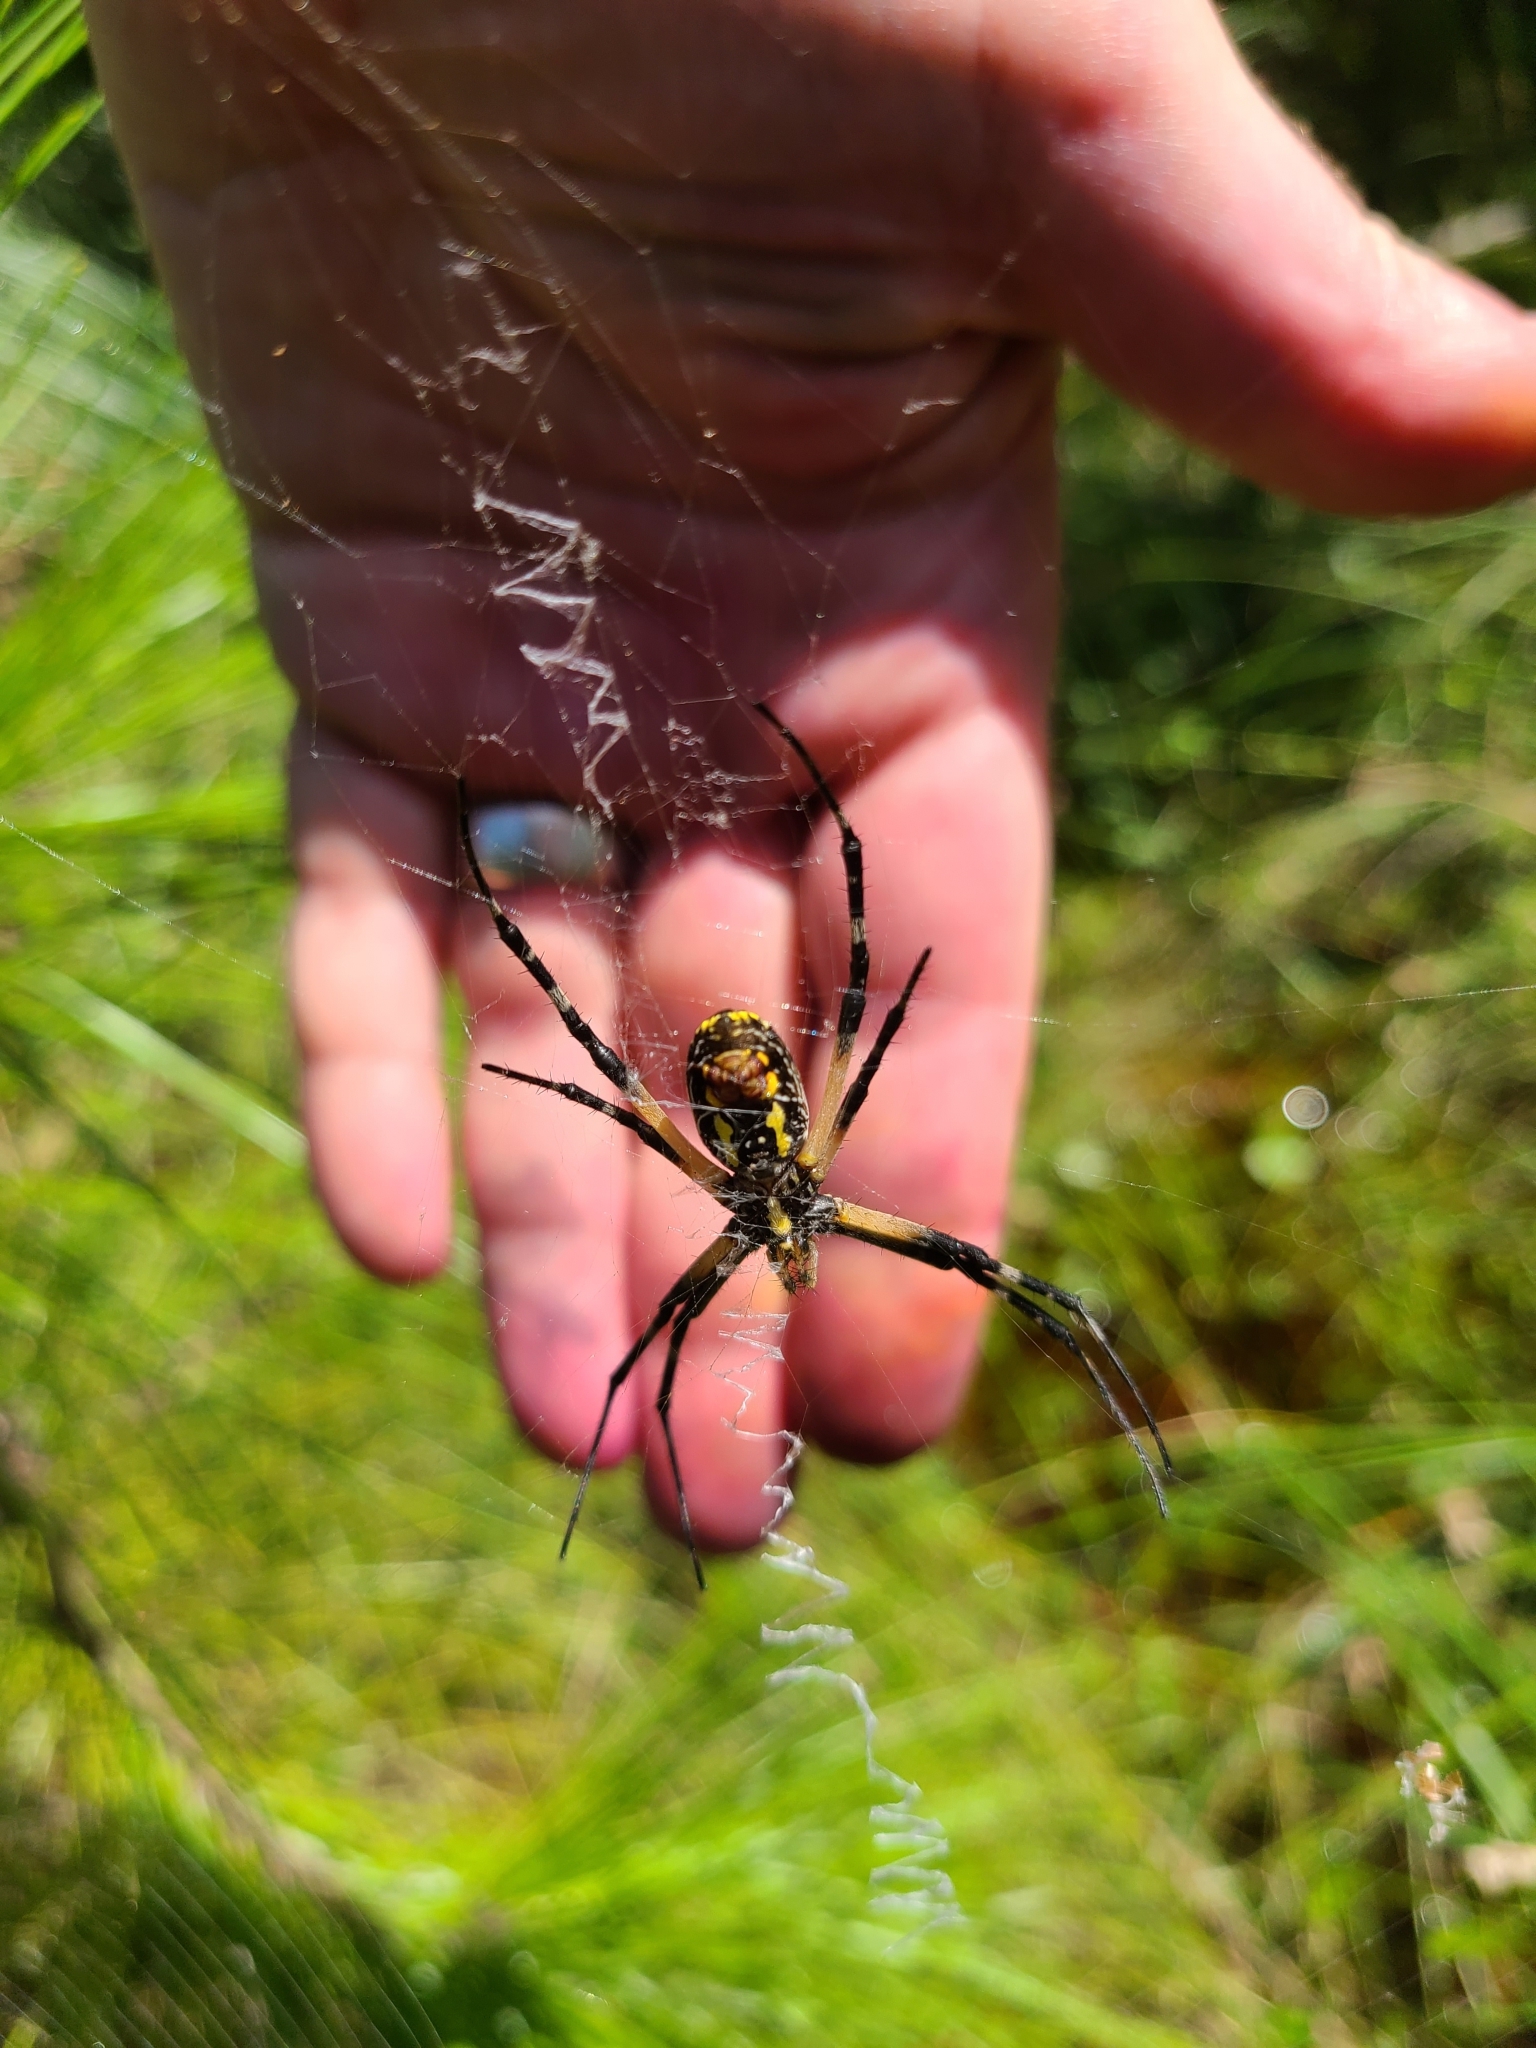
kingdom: Animalia
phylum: Arthropoda
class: Arachnida
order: Araneae
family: Araneidae
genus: Argiope
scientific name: Argiope aurantia
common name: Orb weavers
